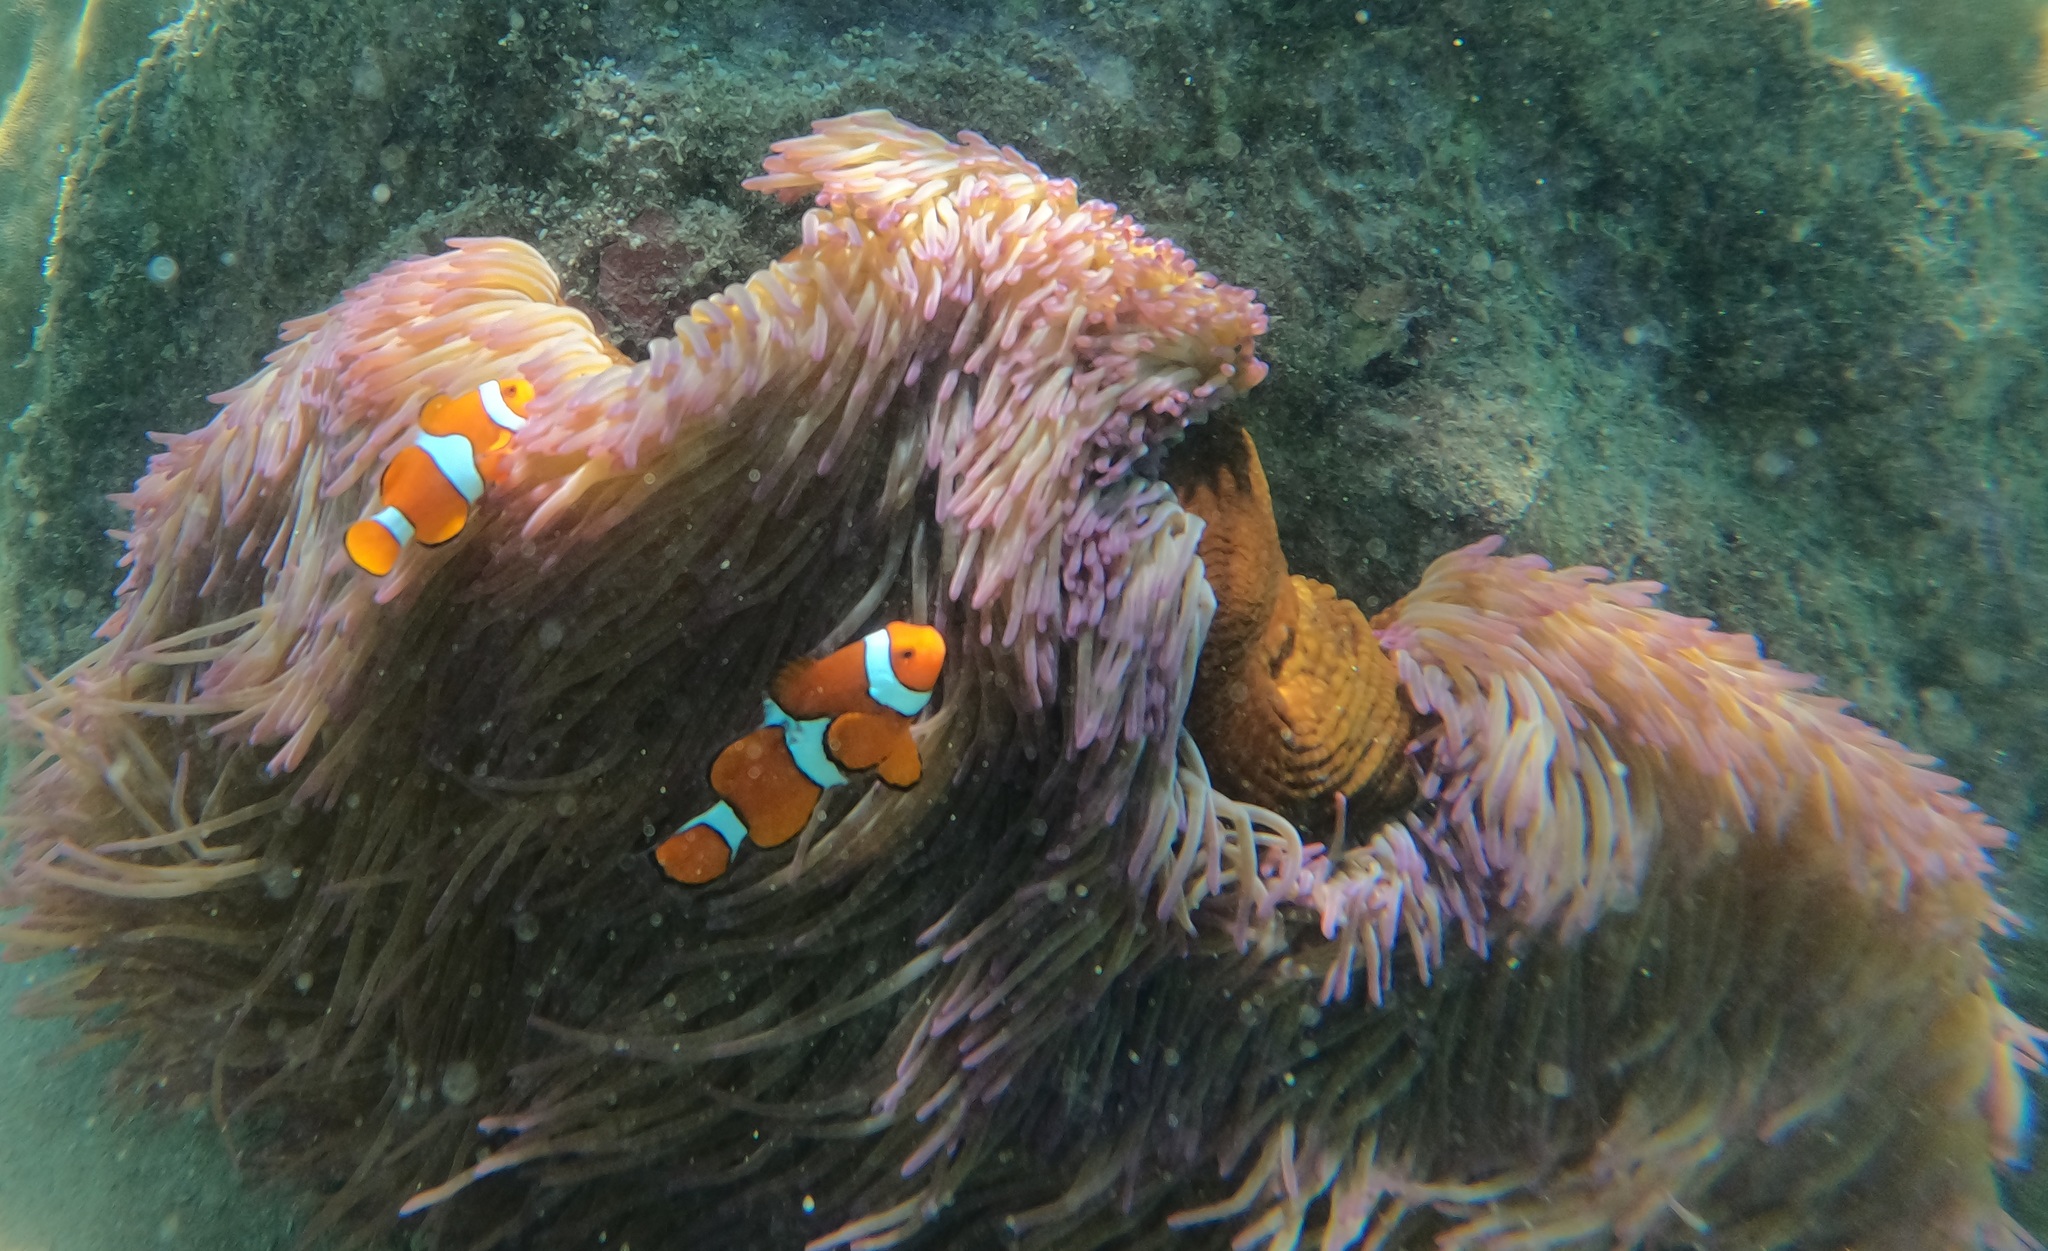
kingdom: Animalia
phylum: Chordata
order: Perciformes
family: Pomacentridae
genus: Amphiprion
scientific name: Amphiprion percula
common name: Clown anemonefish
